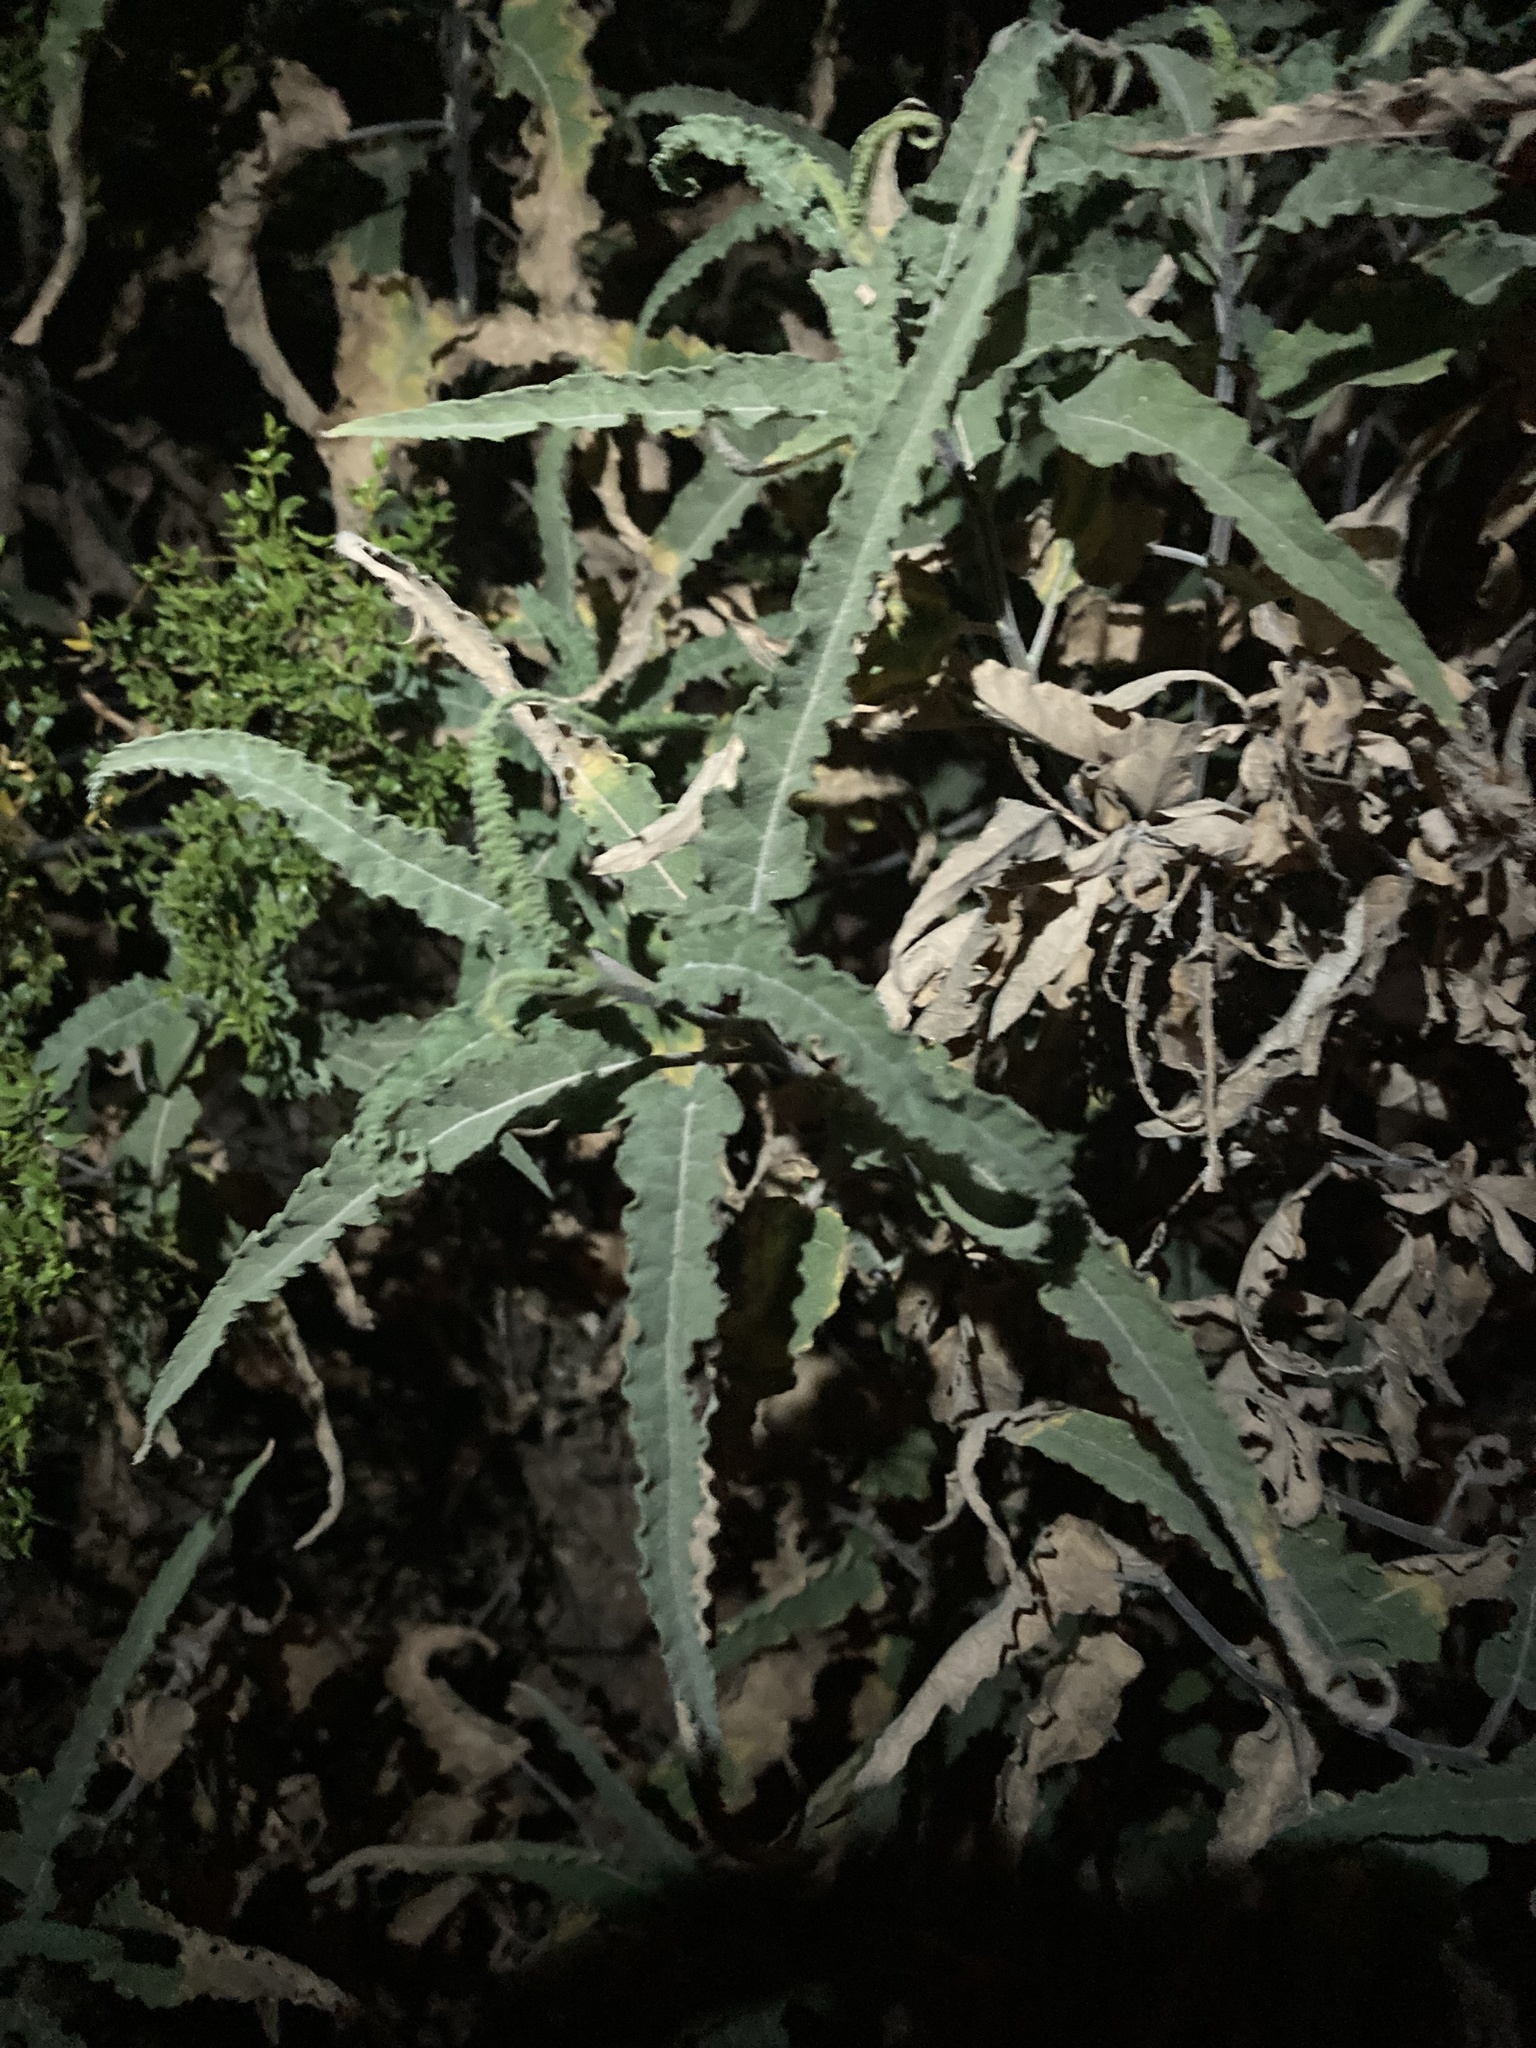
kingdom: Plantae
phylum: Tracheophyta
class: Magnoliopsida
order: Asterales
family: Asteraceae
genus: Ambrosia
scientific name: Ambrosia ambrosioides
